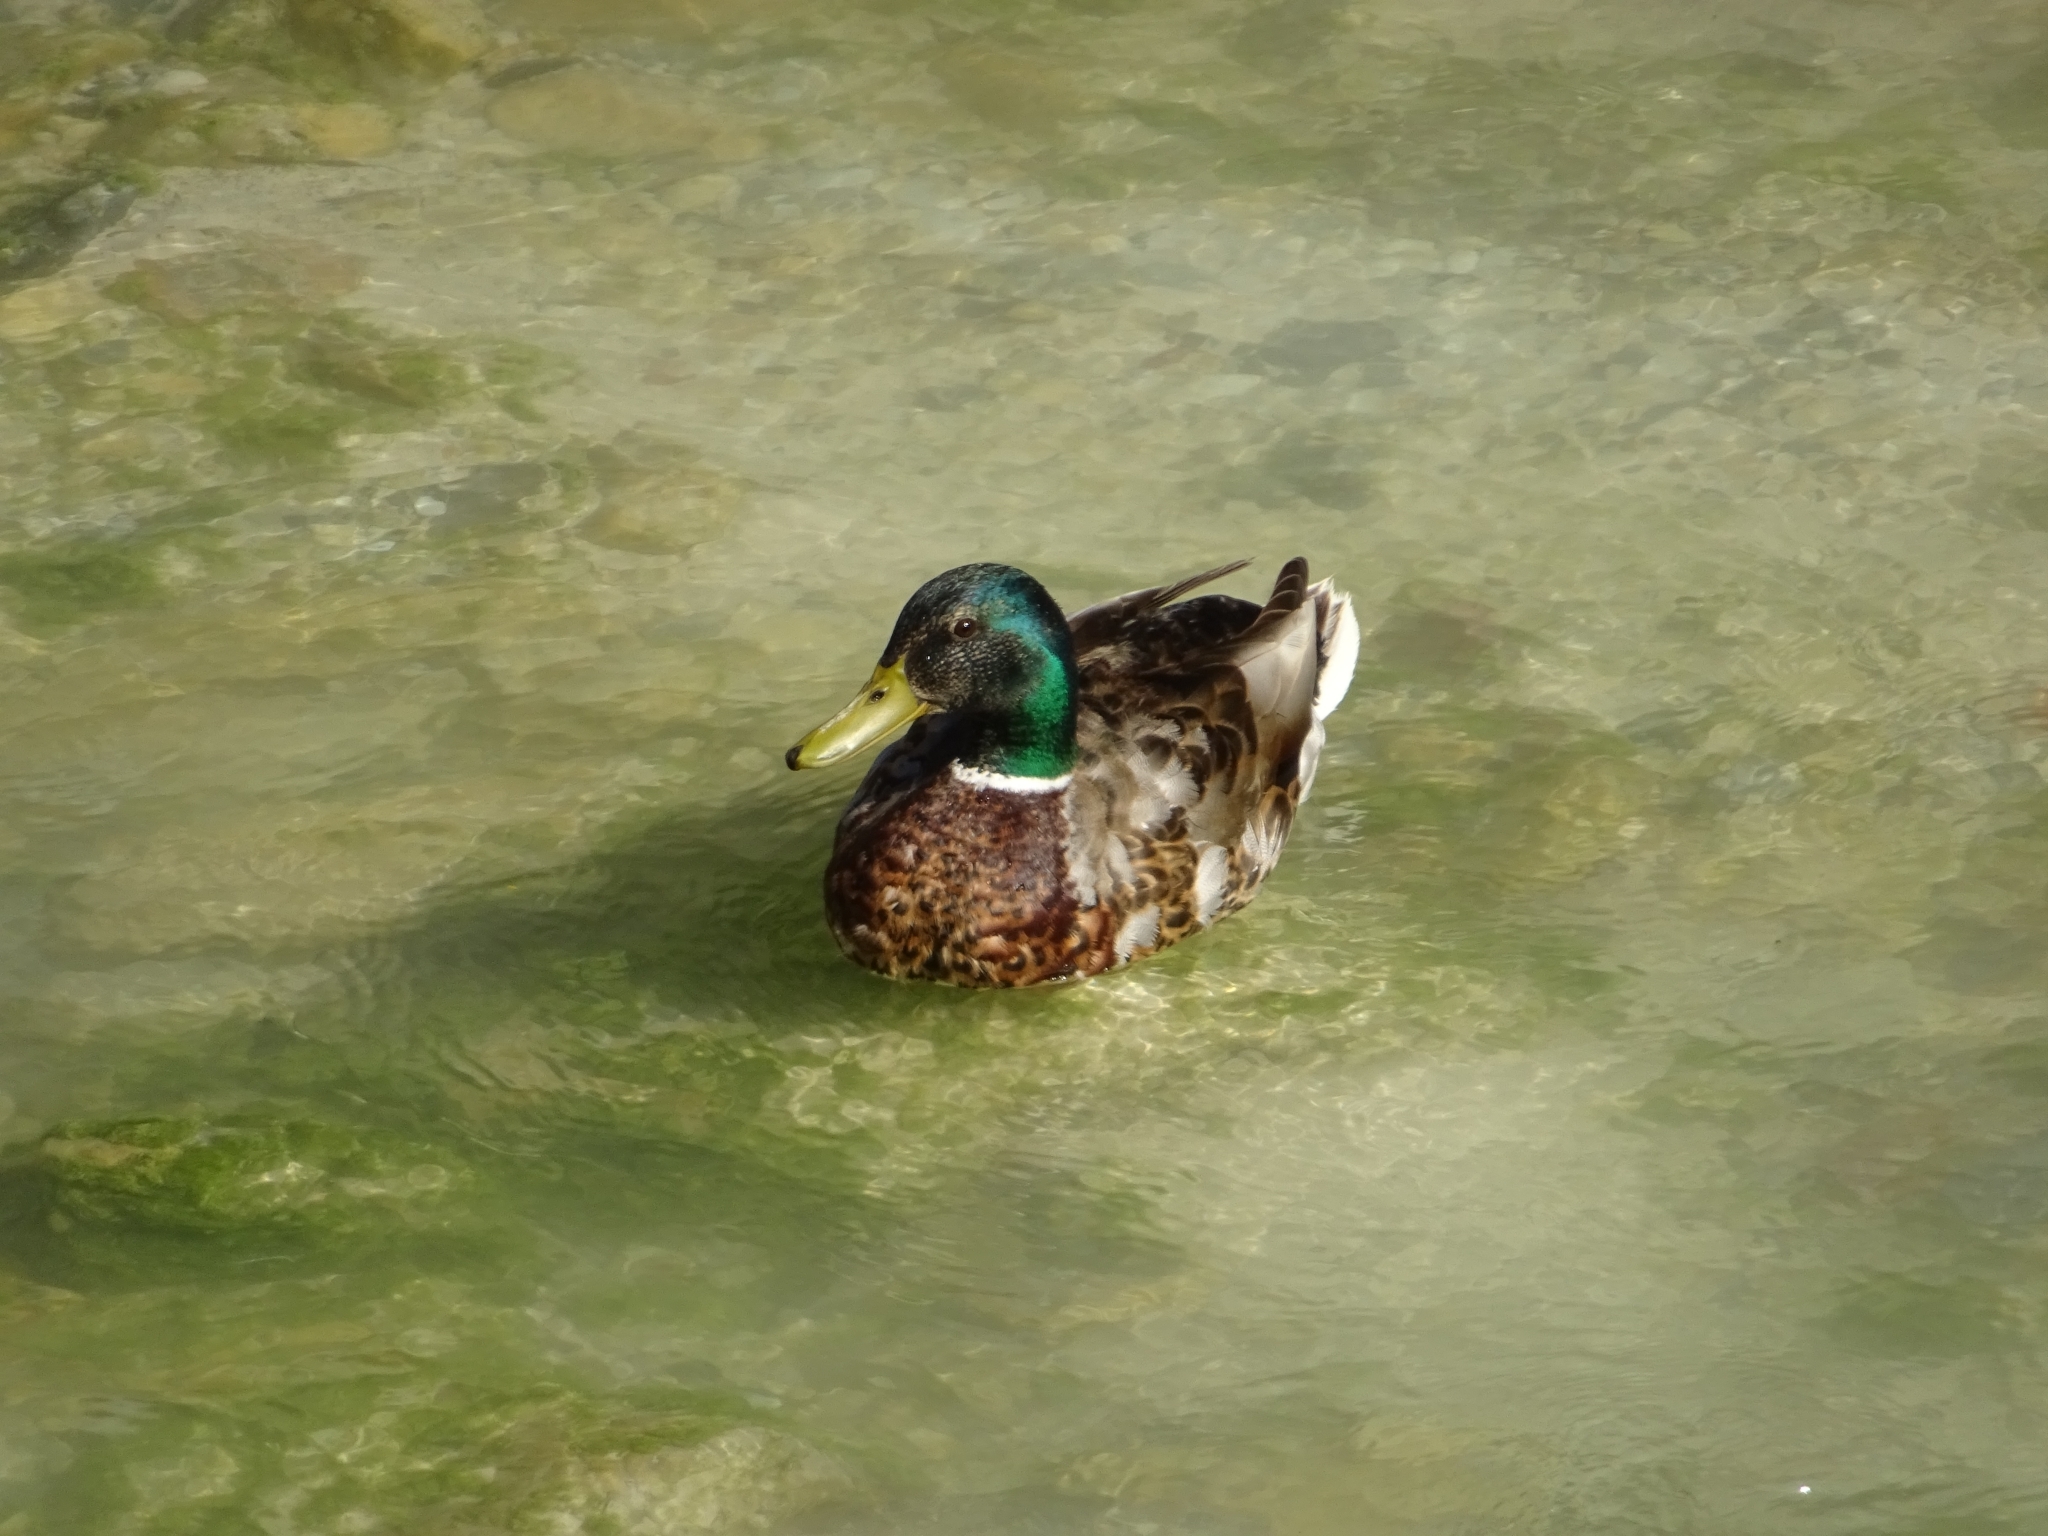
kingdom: Animalia
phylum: Chordata
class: Aves
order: Anseriformes
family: Anatidae
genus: Anas
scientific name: Anas platyrhynchos
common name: Mallard
